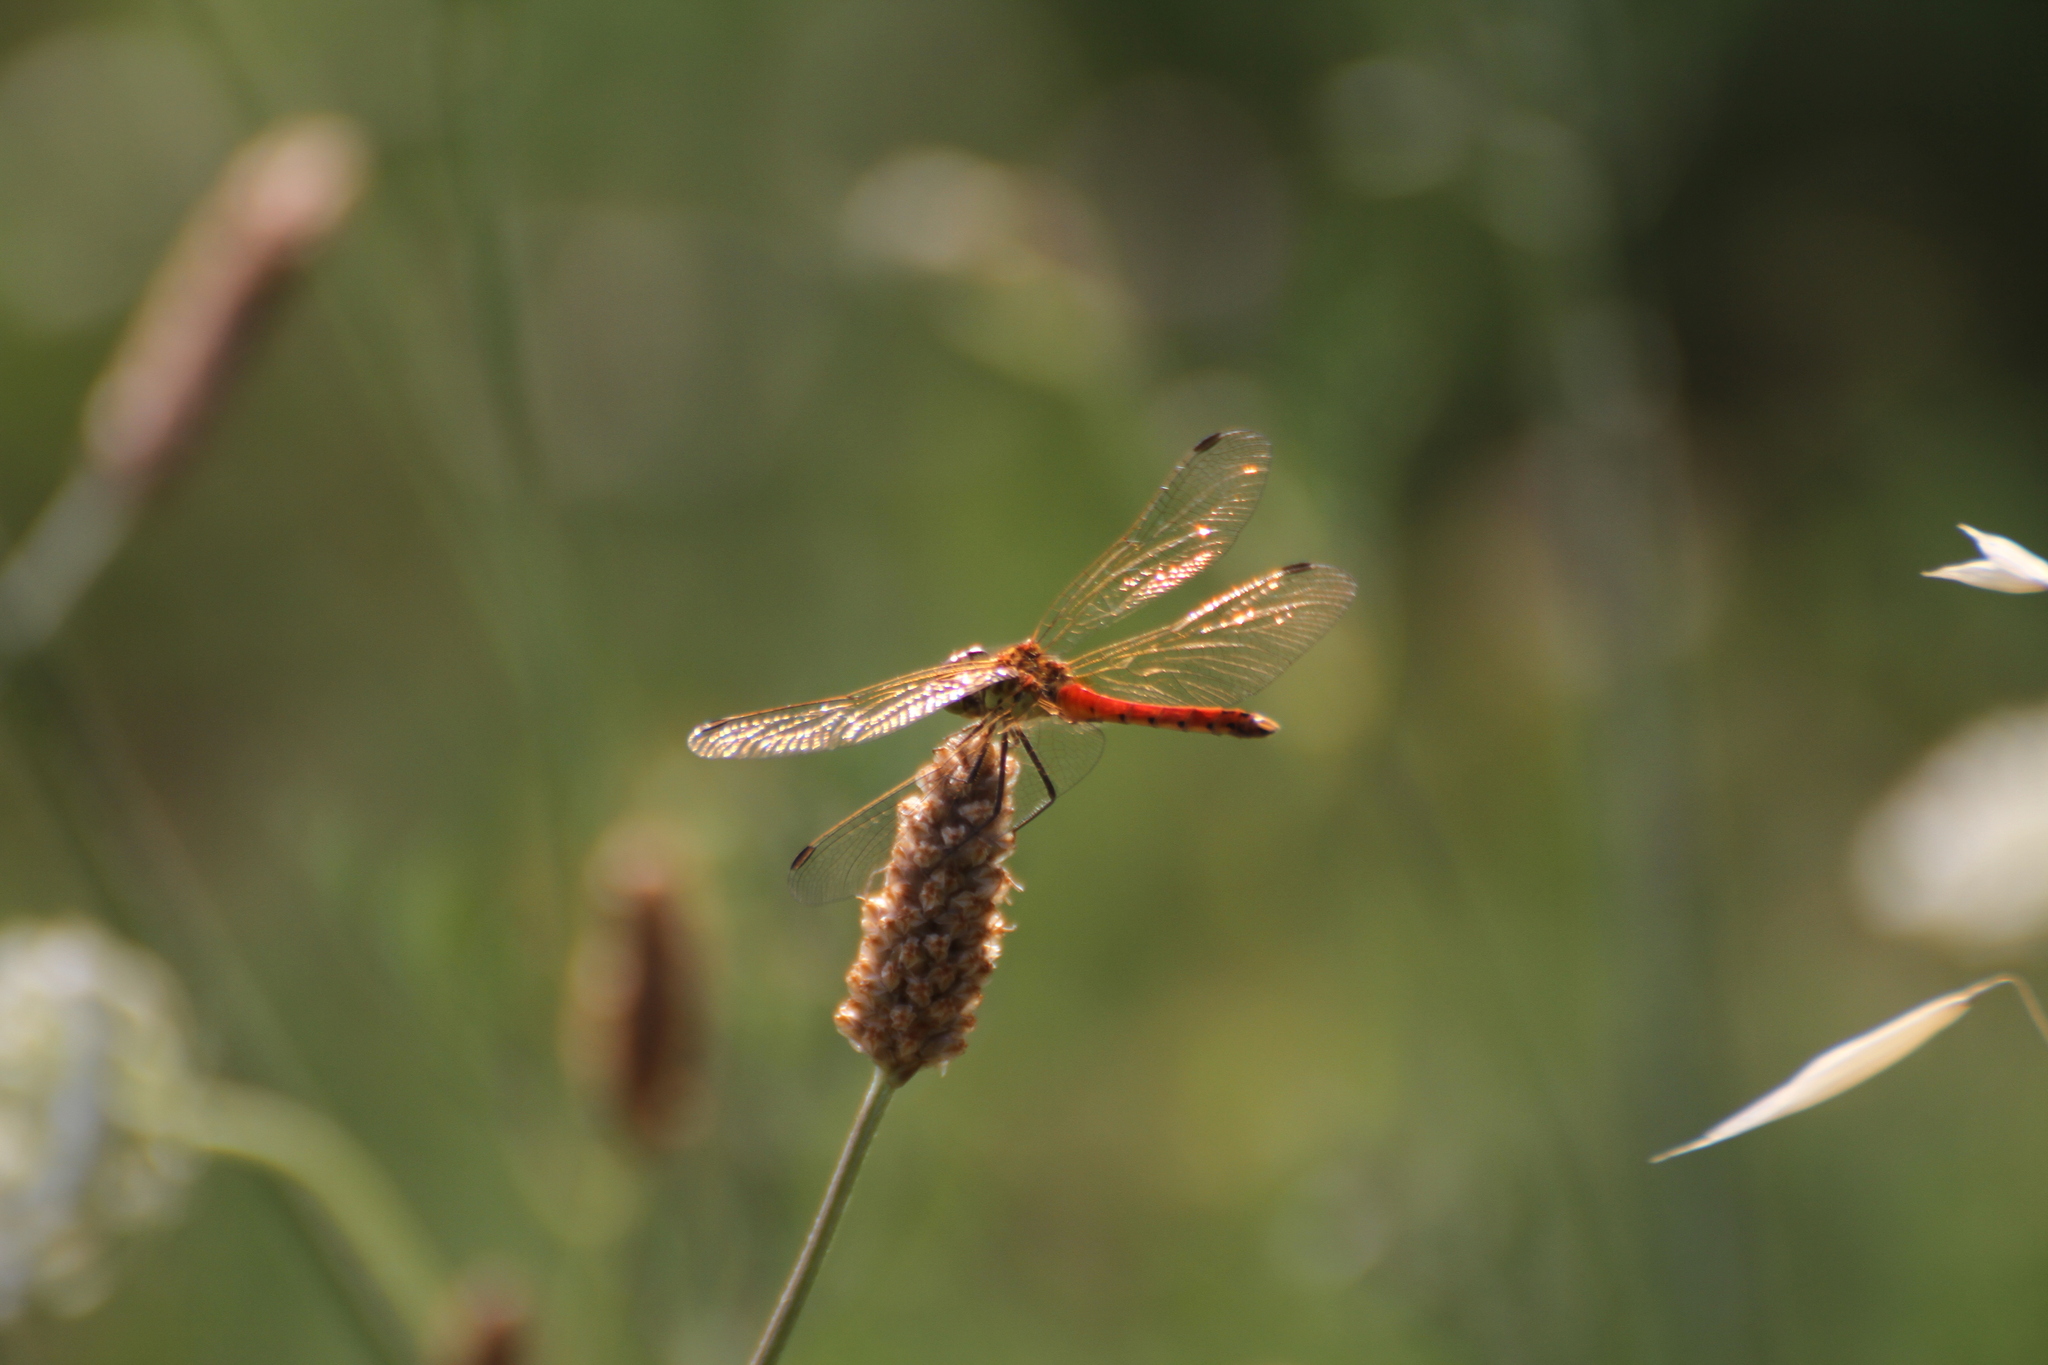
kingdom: Animalia
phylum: Arthropoda
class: Insecta
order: Odonata
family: Libellulidae
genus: Sympetrum
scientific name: Sympetrum depressiusculum
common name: Spotted darter
